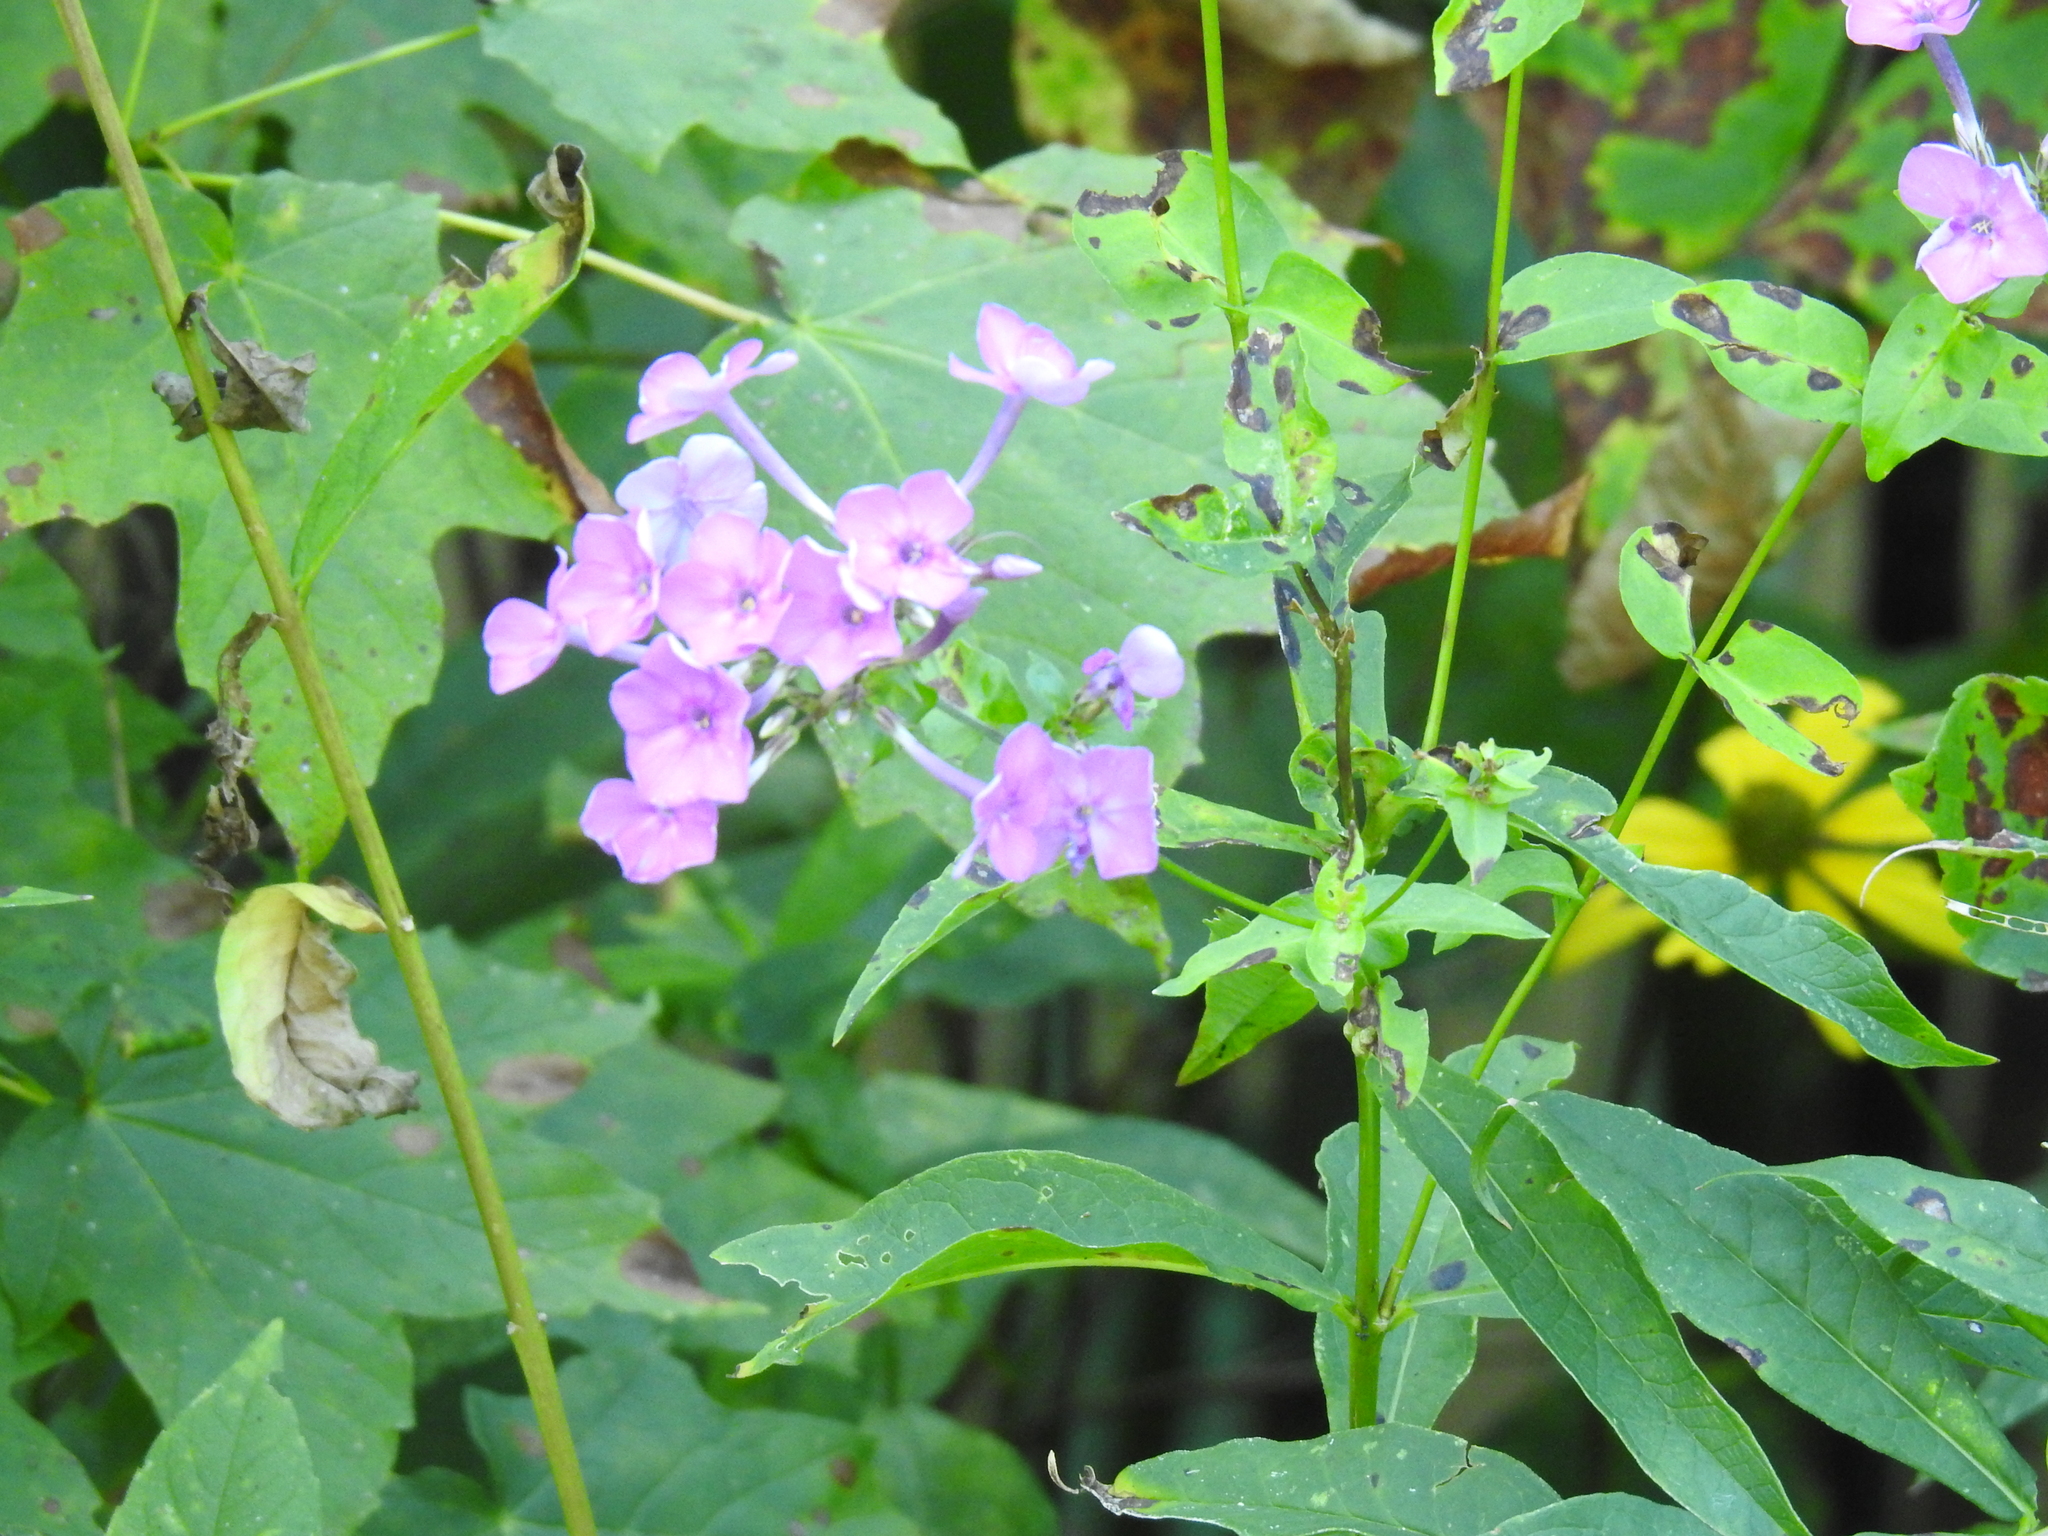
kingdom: Plantae
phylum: Tracheophyta
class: Magnoliopsida
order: Ericales
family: Polemoniaceae
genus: Phlox
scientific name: Phlox paniculata
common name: Fall phlox
